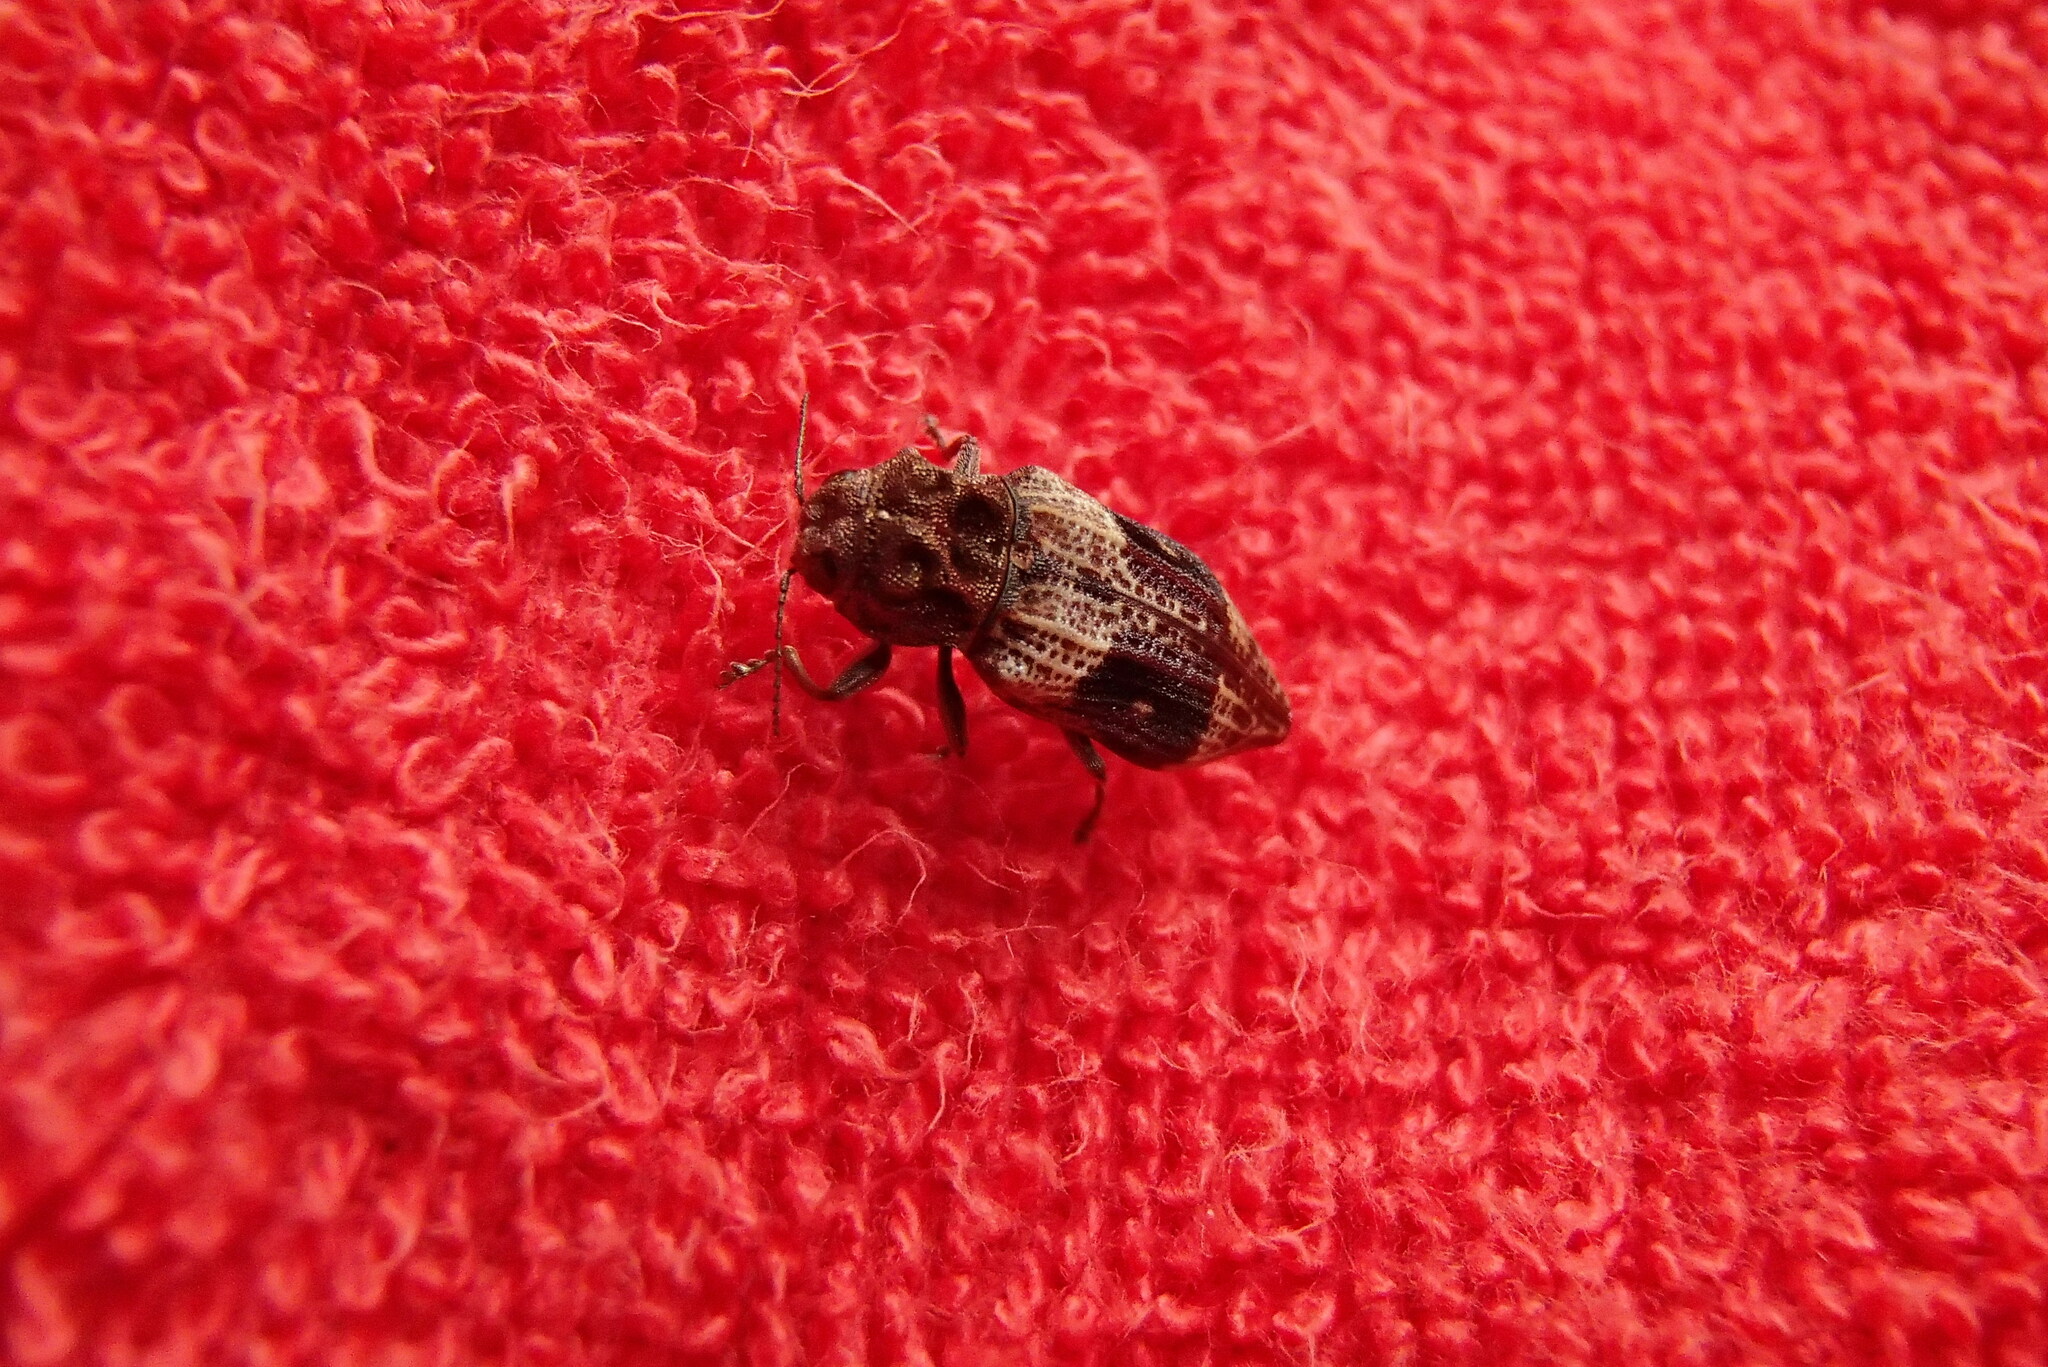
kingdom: Animalia
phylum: Arthropoda
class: Insecta
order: Coleoptera
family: Buprestidae
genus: Nascio
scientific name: Nascio vetusta
